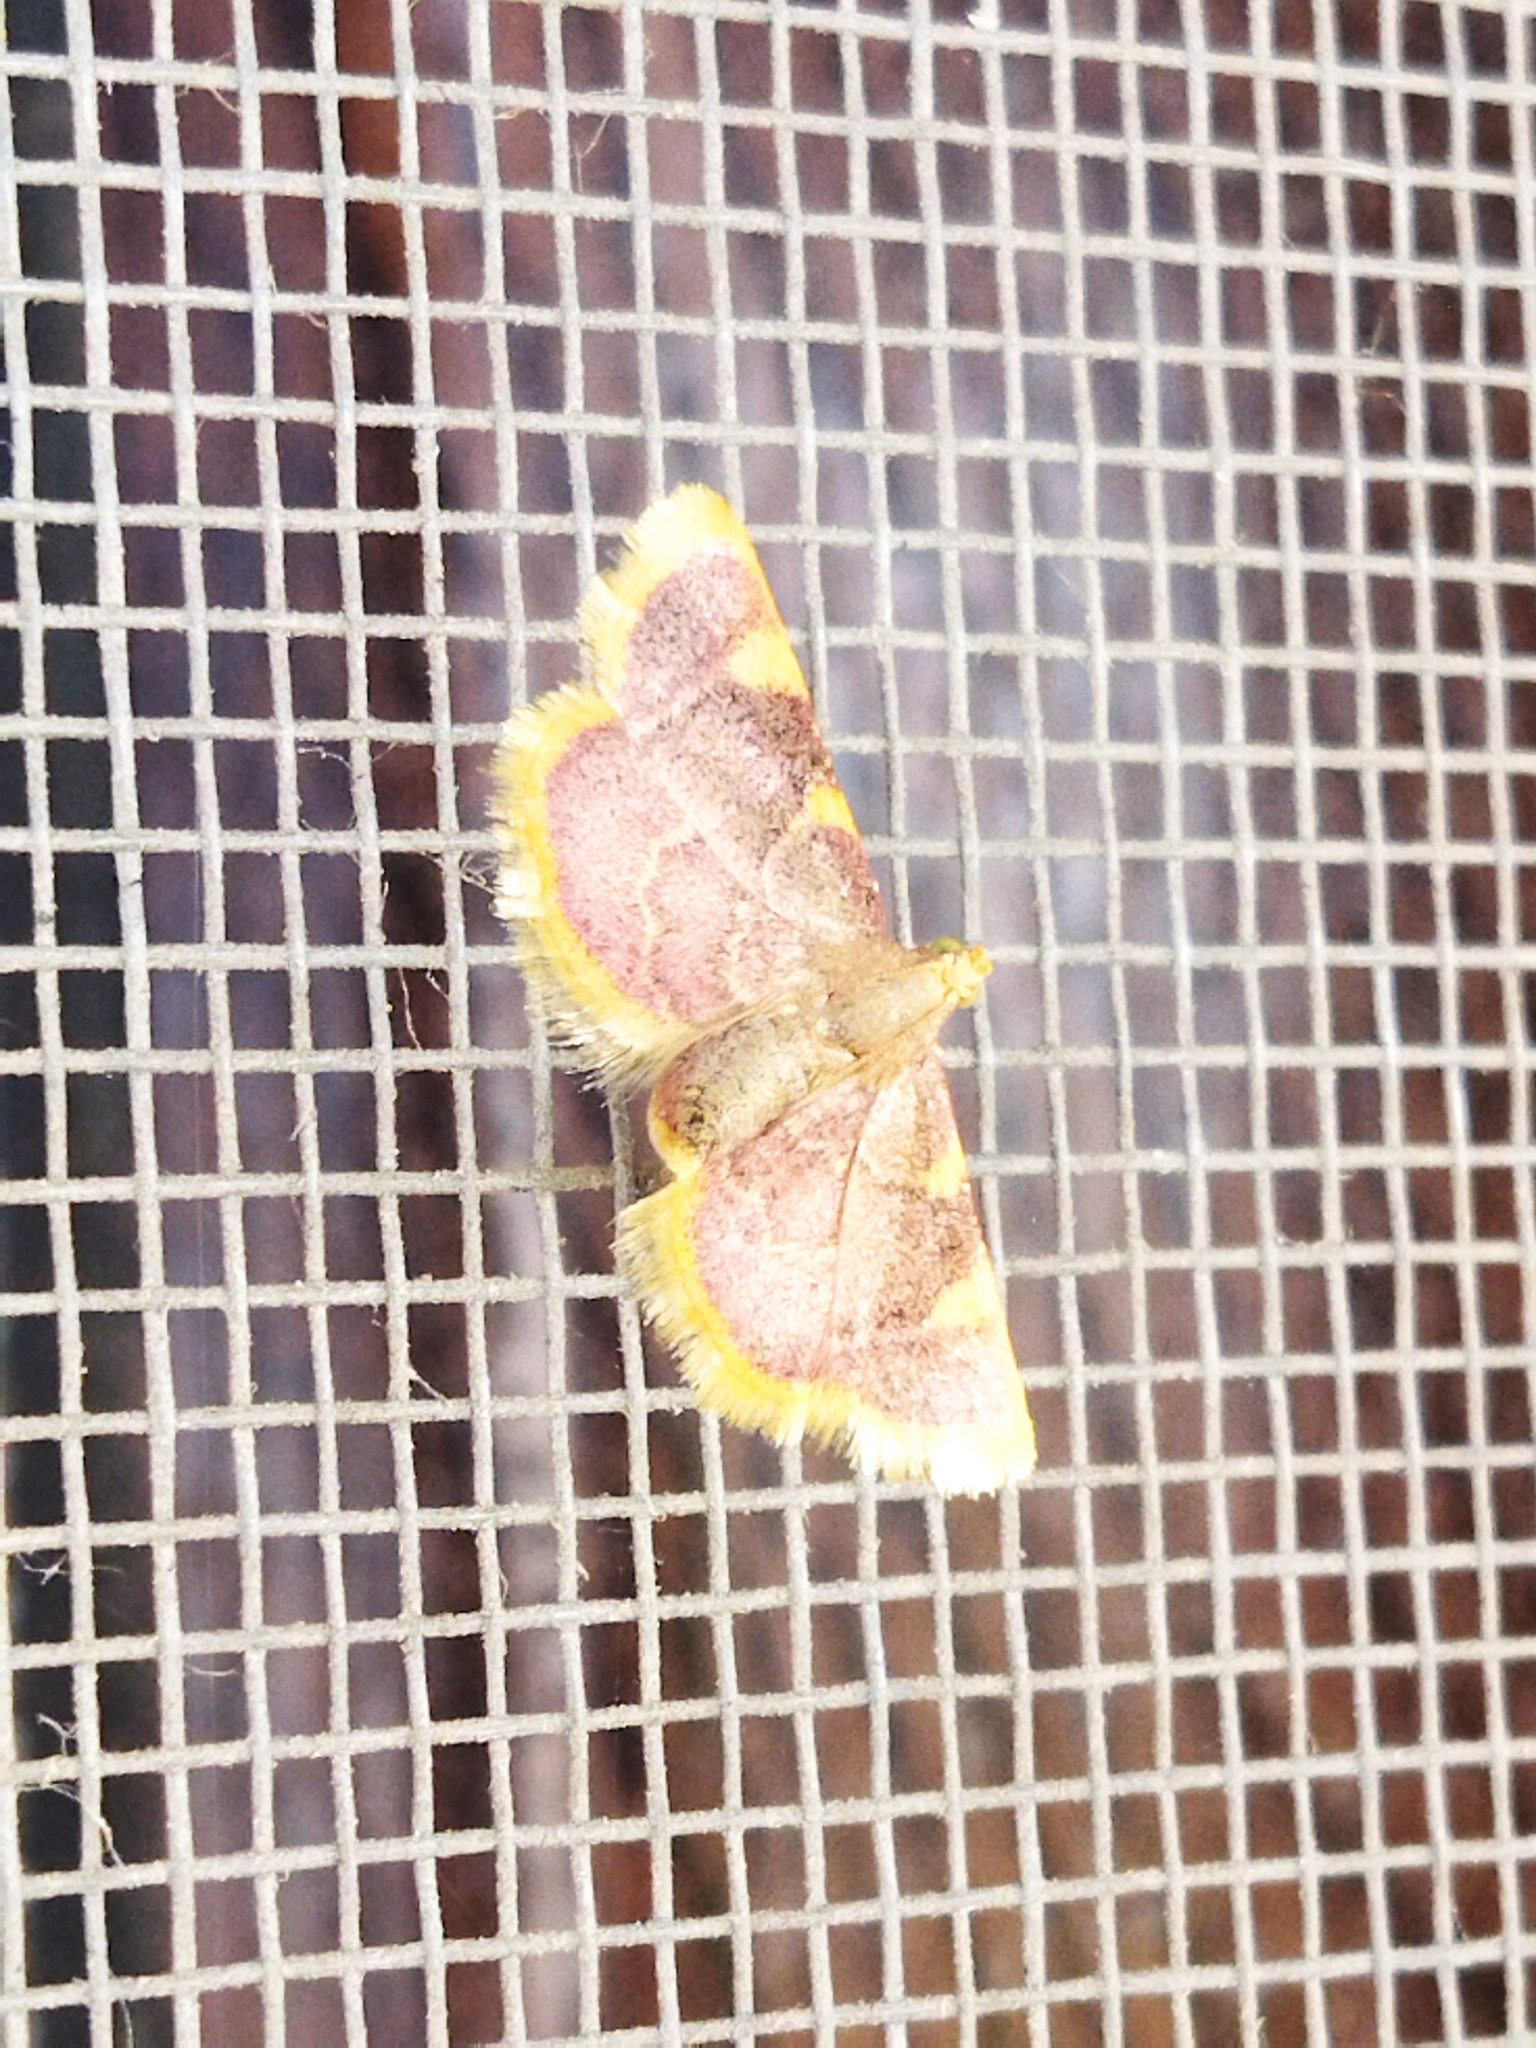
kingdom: Animalia
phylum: Arthropoda
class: Insecta
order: Lepidoptera
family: Pyralidae
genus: Hypsopygia
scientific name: Hypsopygia costalis
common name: Gold triangle
